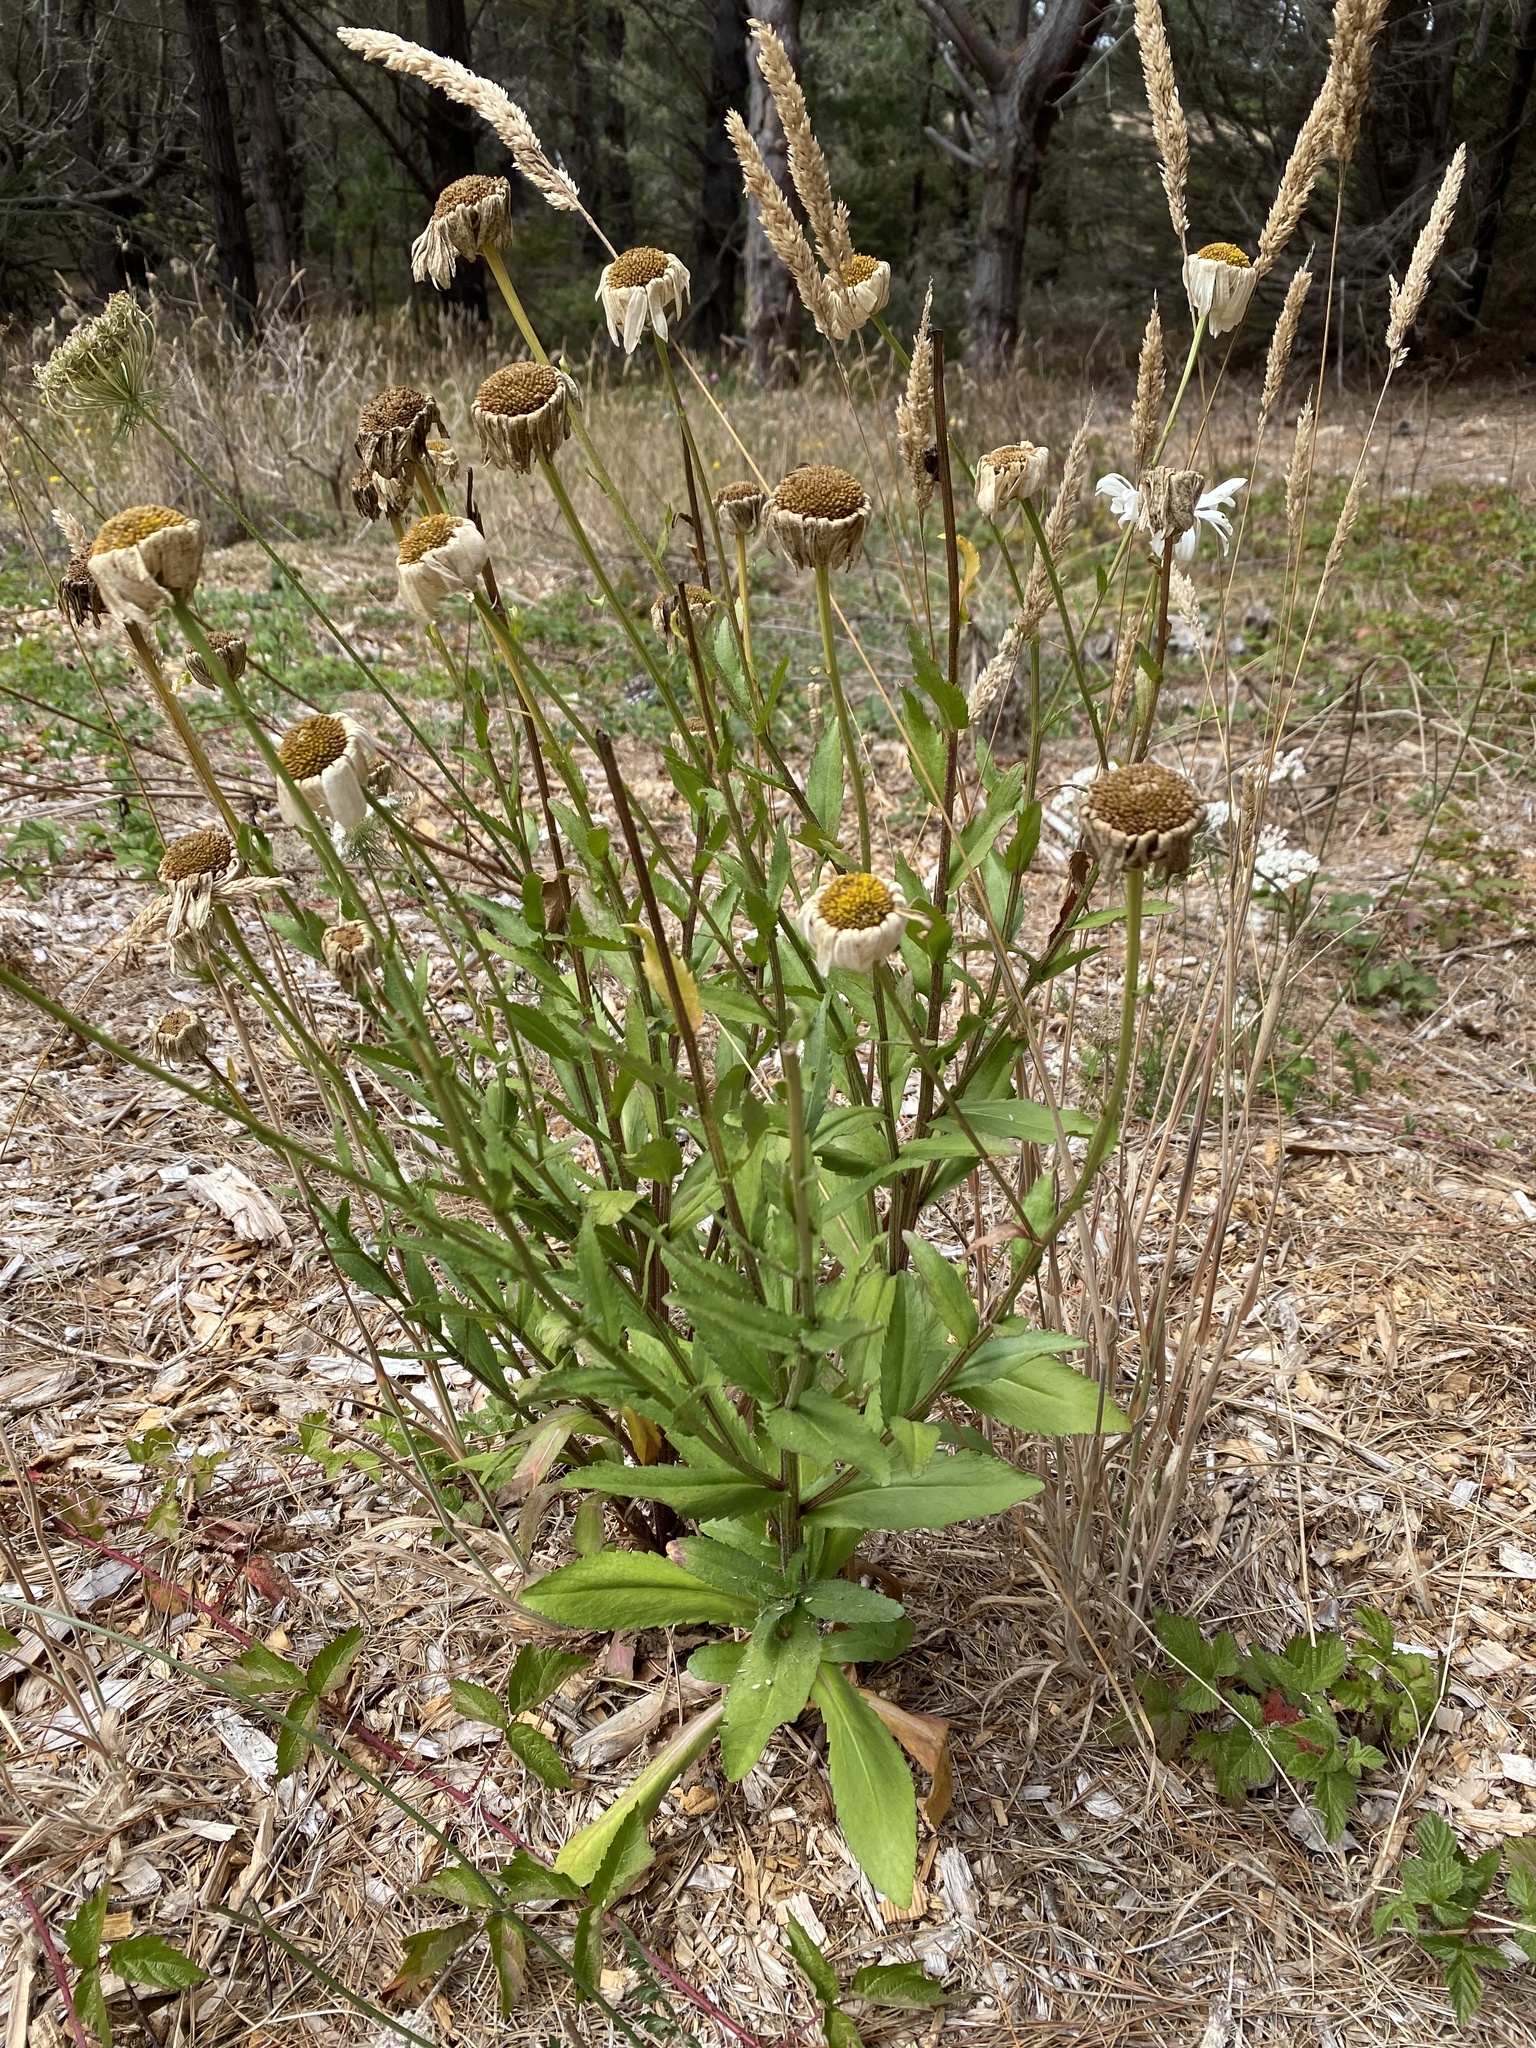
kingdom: Plantae
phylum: Tracheophyta
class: Magnoliopsida
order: Asterales
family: Asteraceae
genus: Leucanthemum
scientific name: Leucanthemum maximum
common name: Max chrysanthemum
